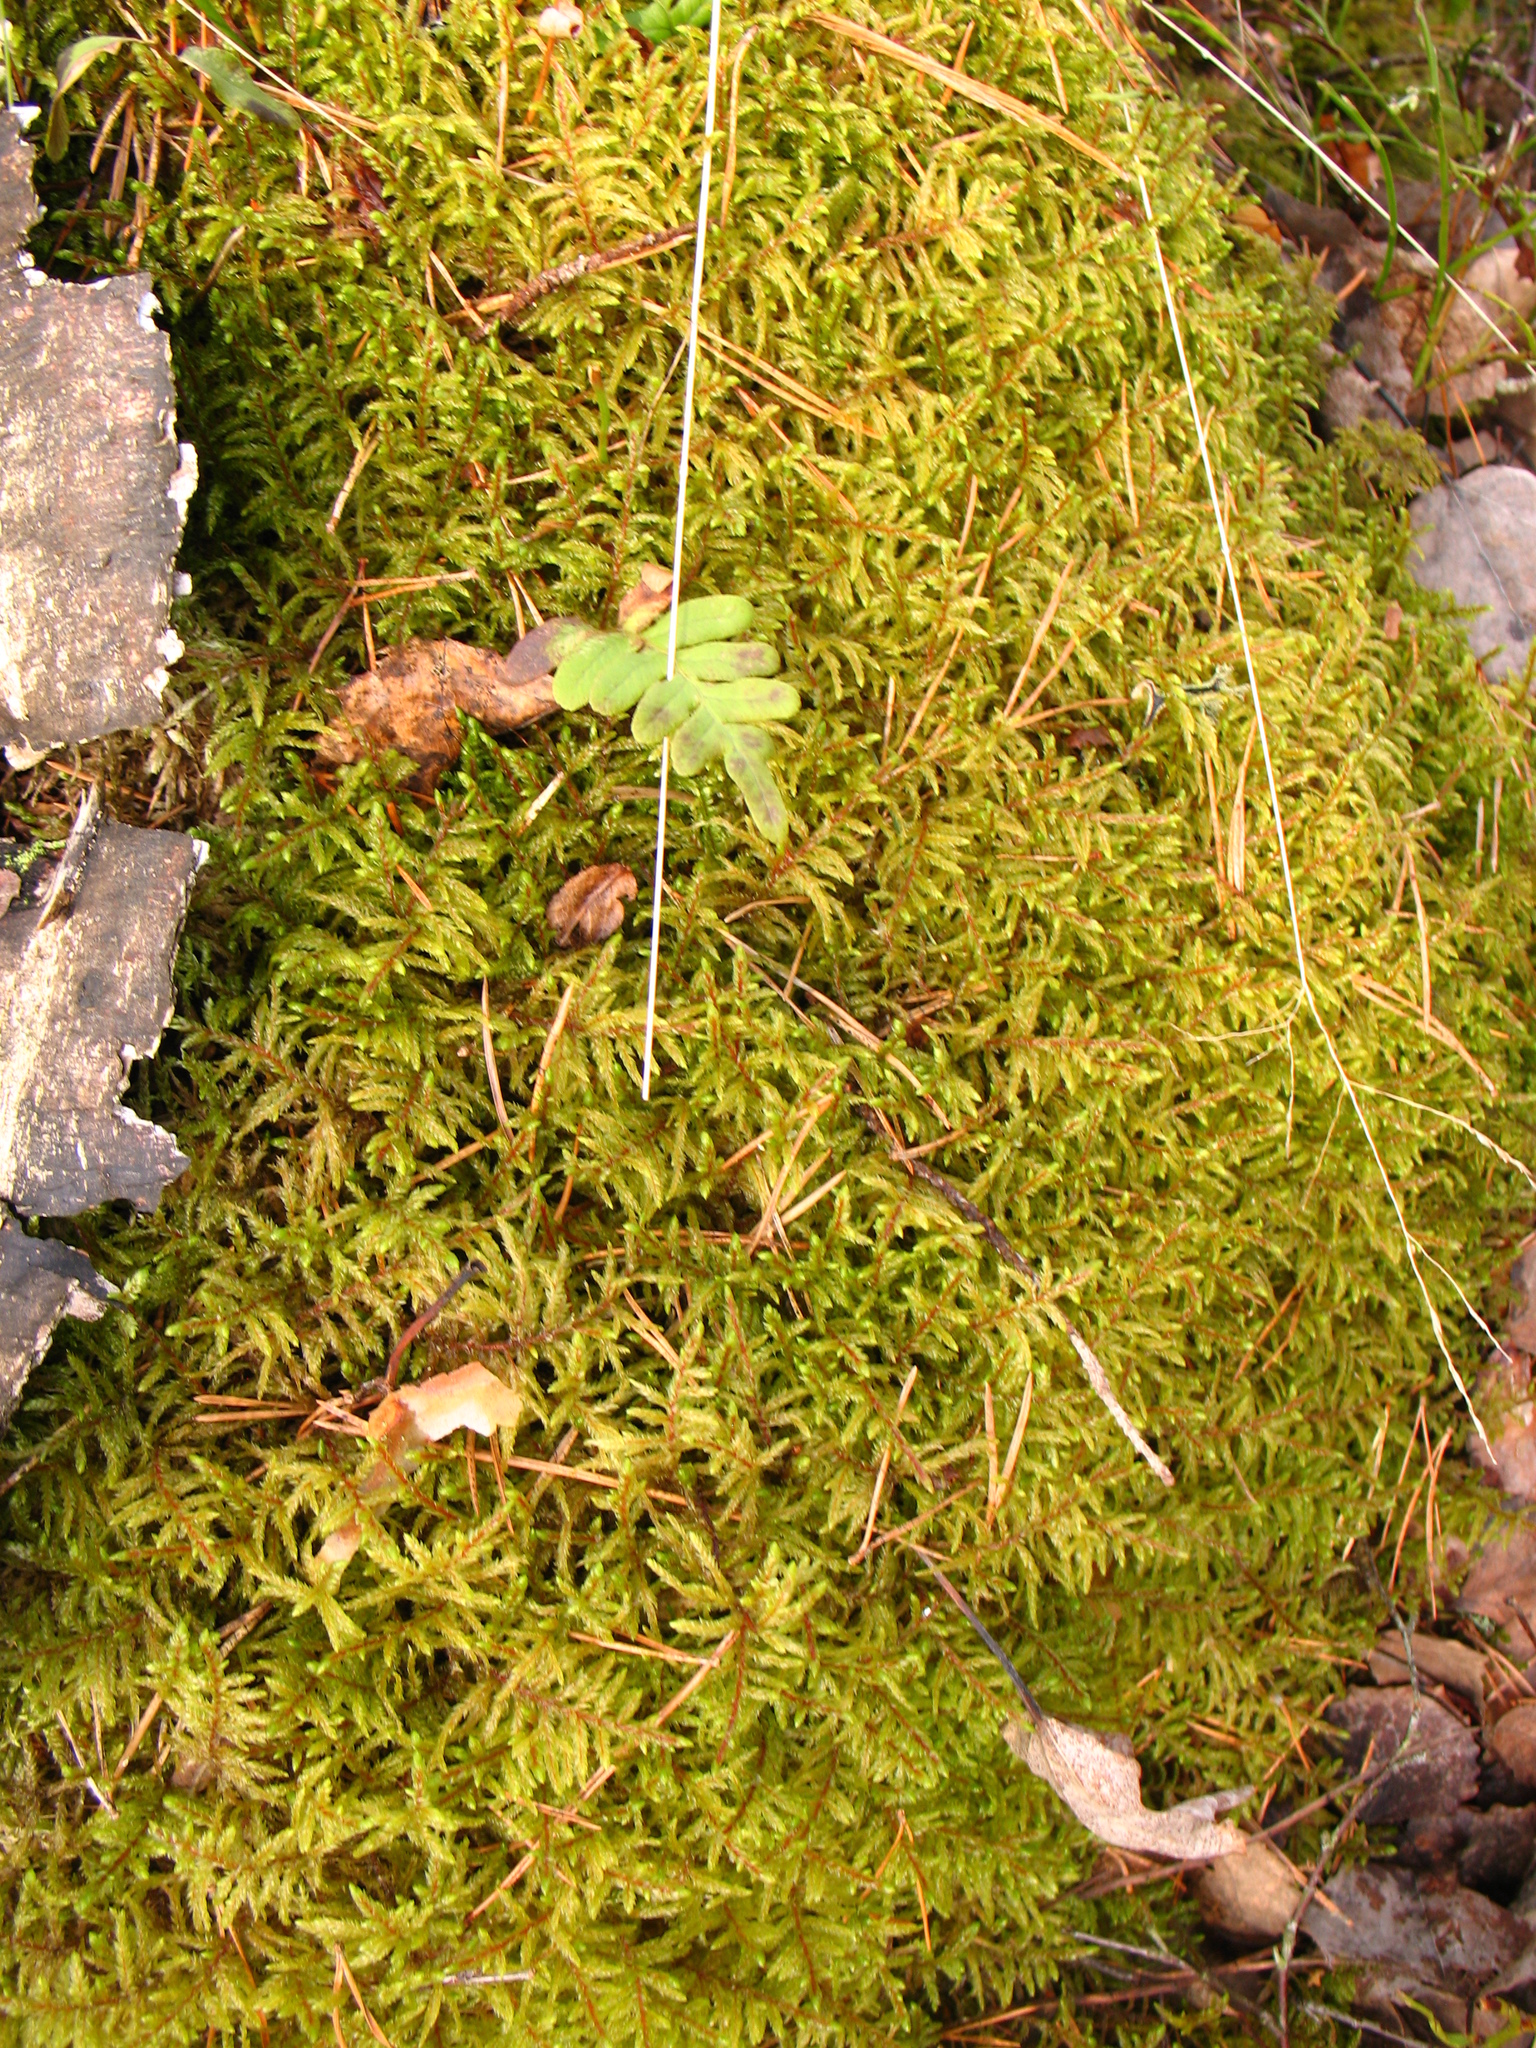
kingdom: Plantae
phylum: Bryophyta
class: Bryopsida
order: Hypnales
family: Hylocomiaceae
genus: Pleurozium
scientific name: Pleurozium schreberi
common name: Red-stemmed feather moss
